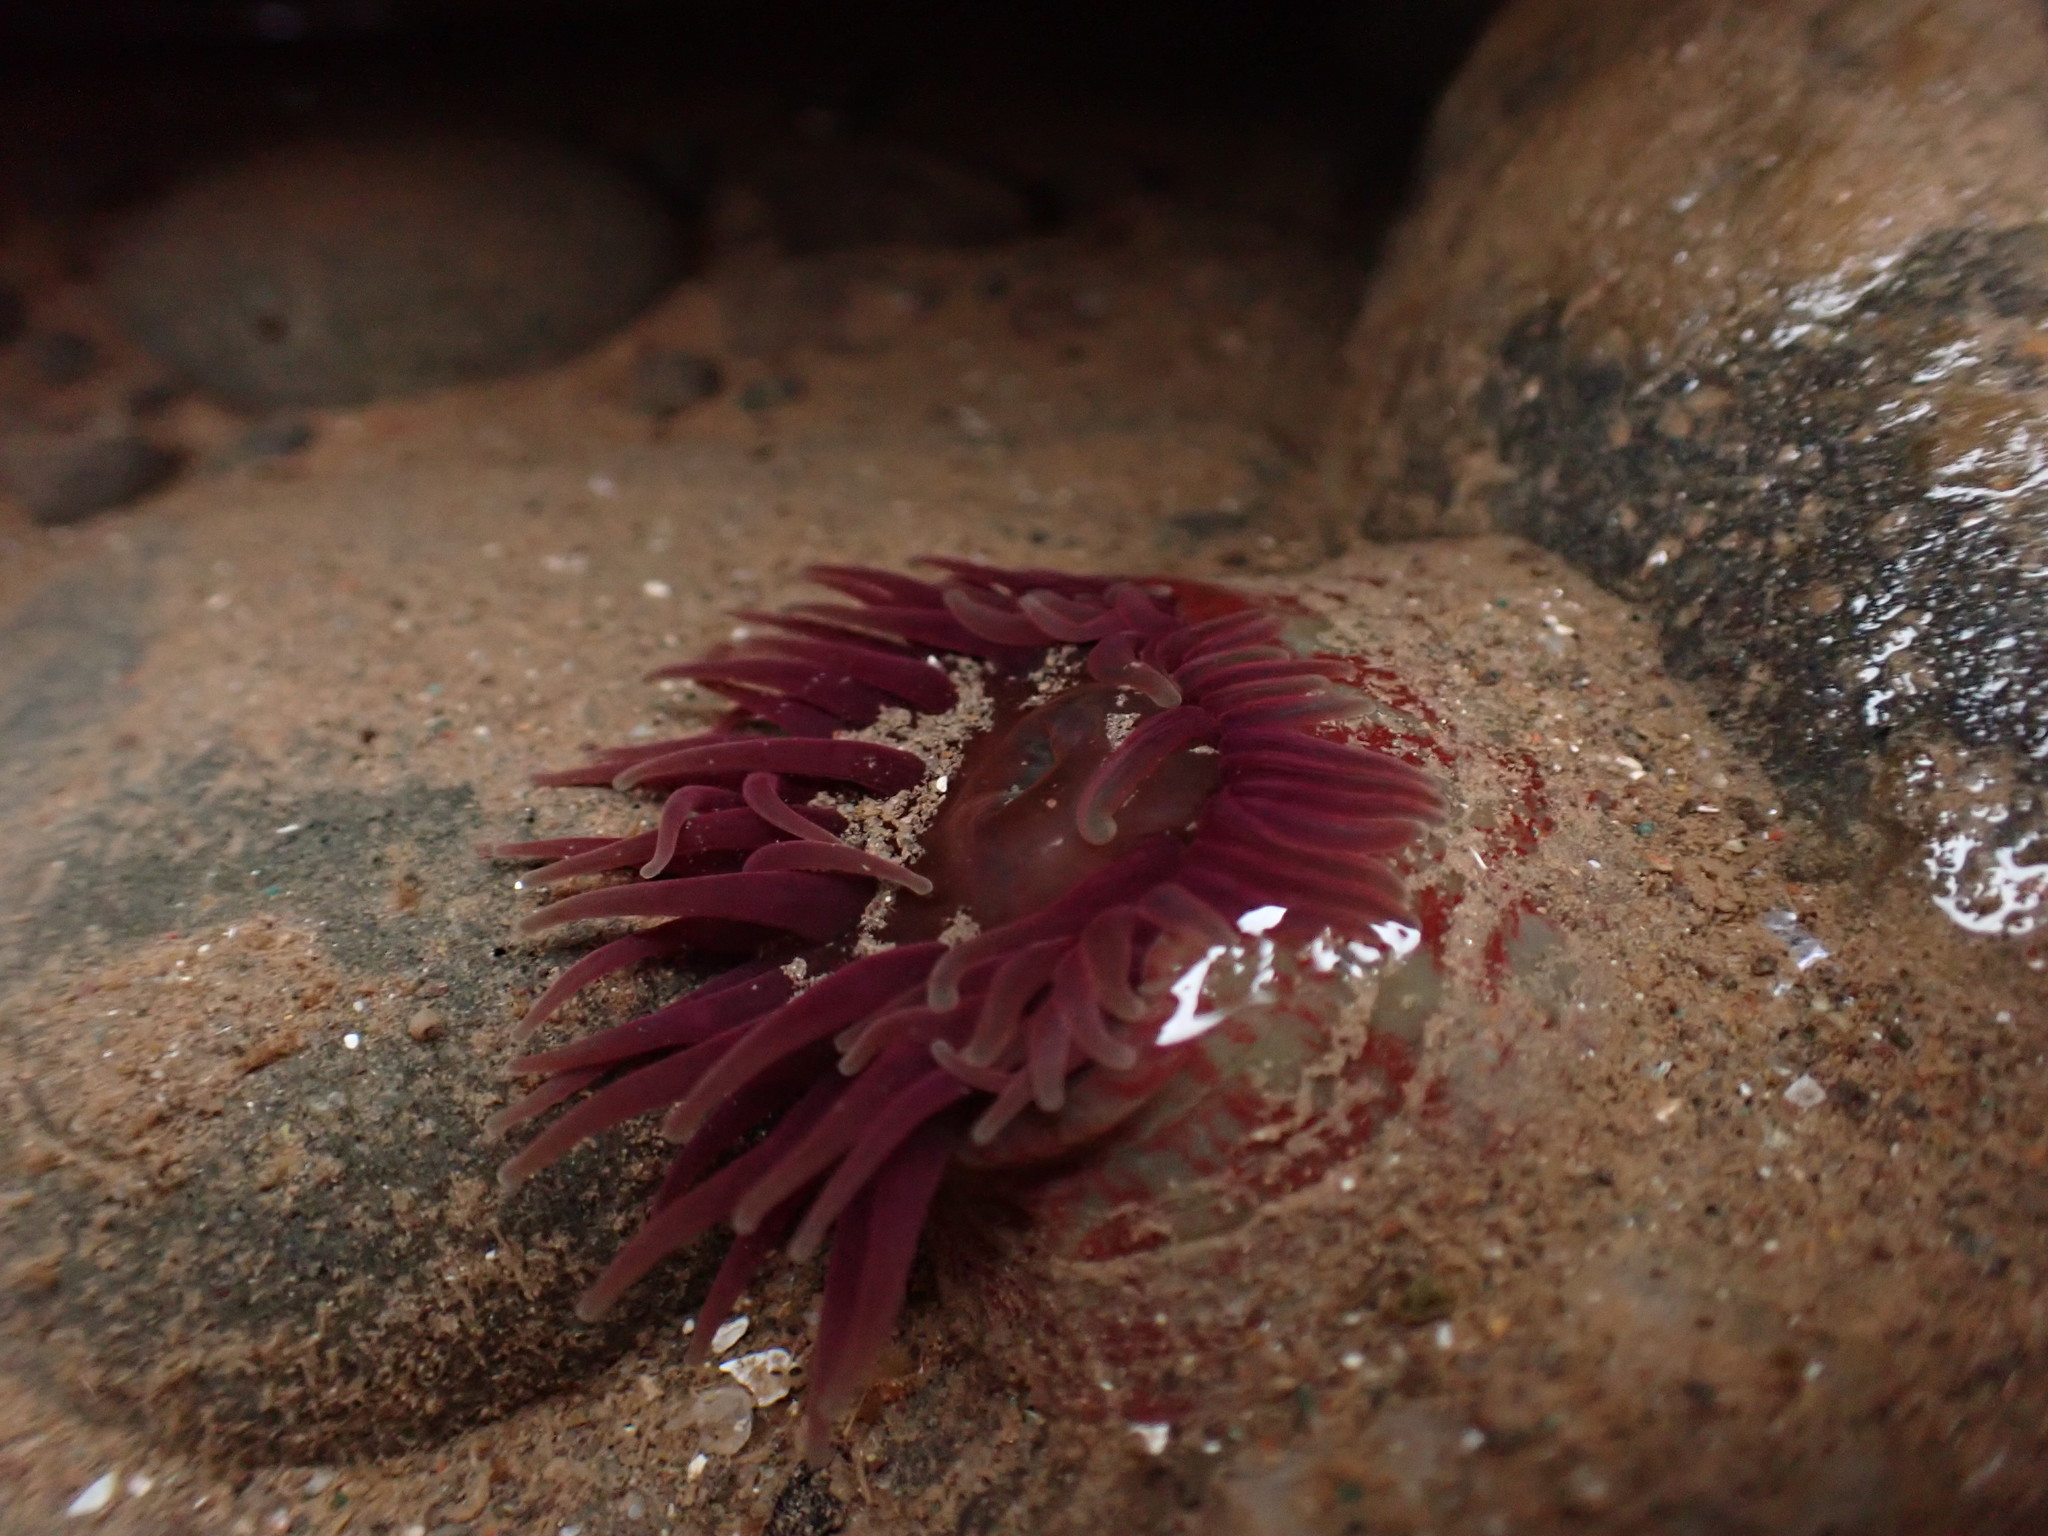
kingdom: Animalia
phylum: Cnidaria
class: Anthozoa
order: Actiniaria
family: Actiniidae
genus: Urticina
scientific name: Urticina crassicornis
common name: Mottled anemone
